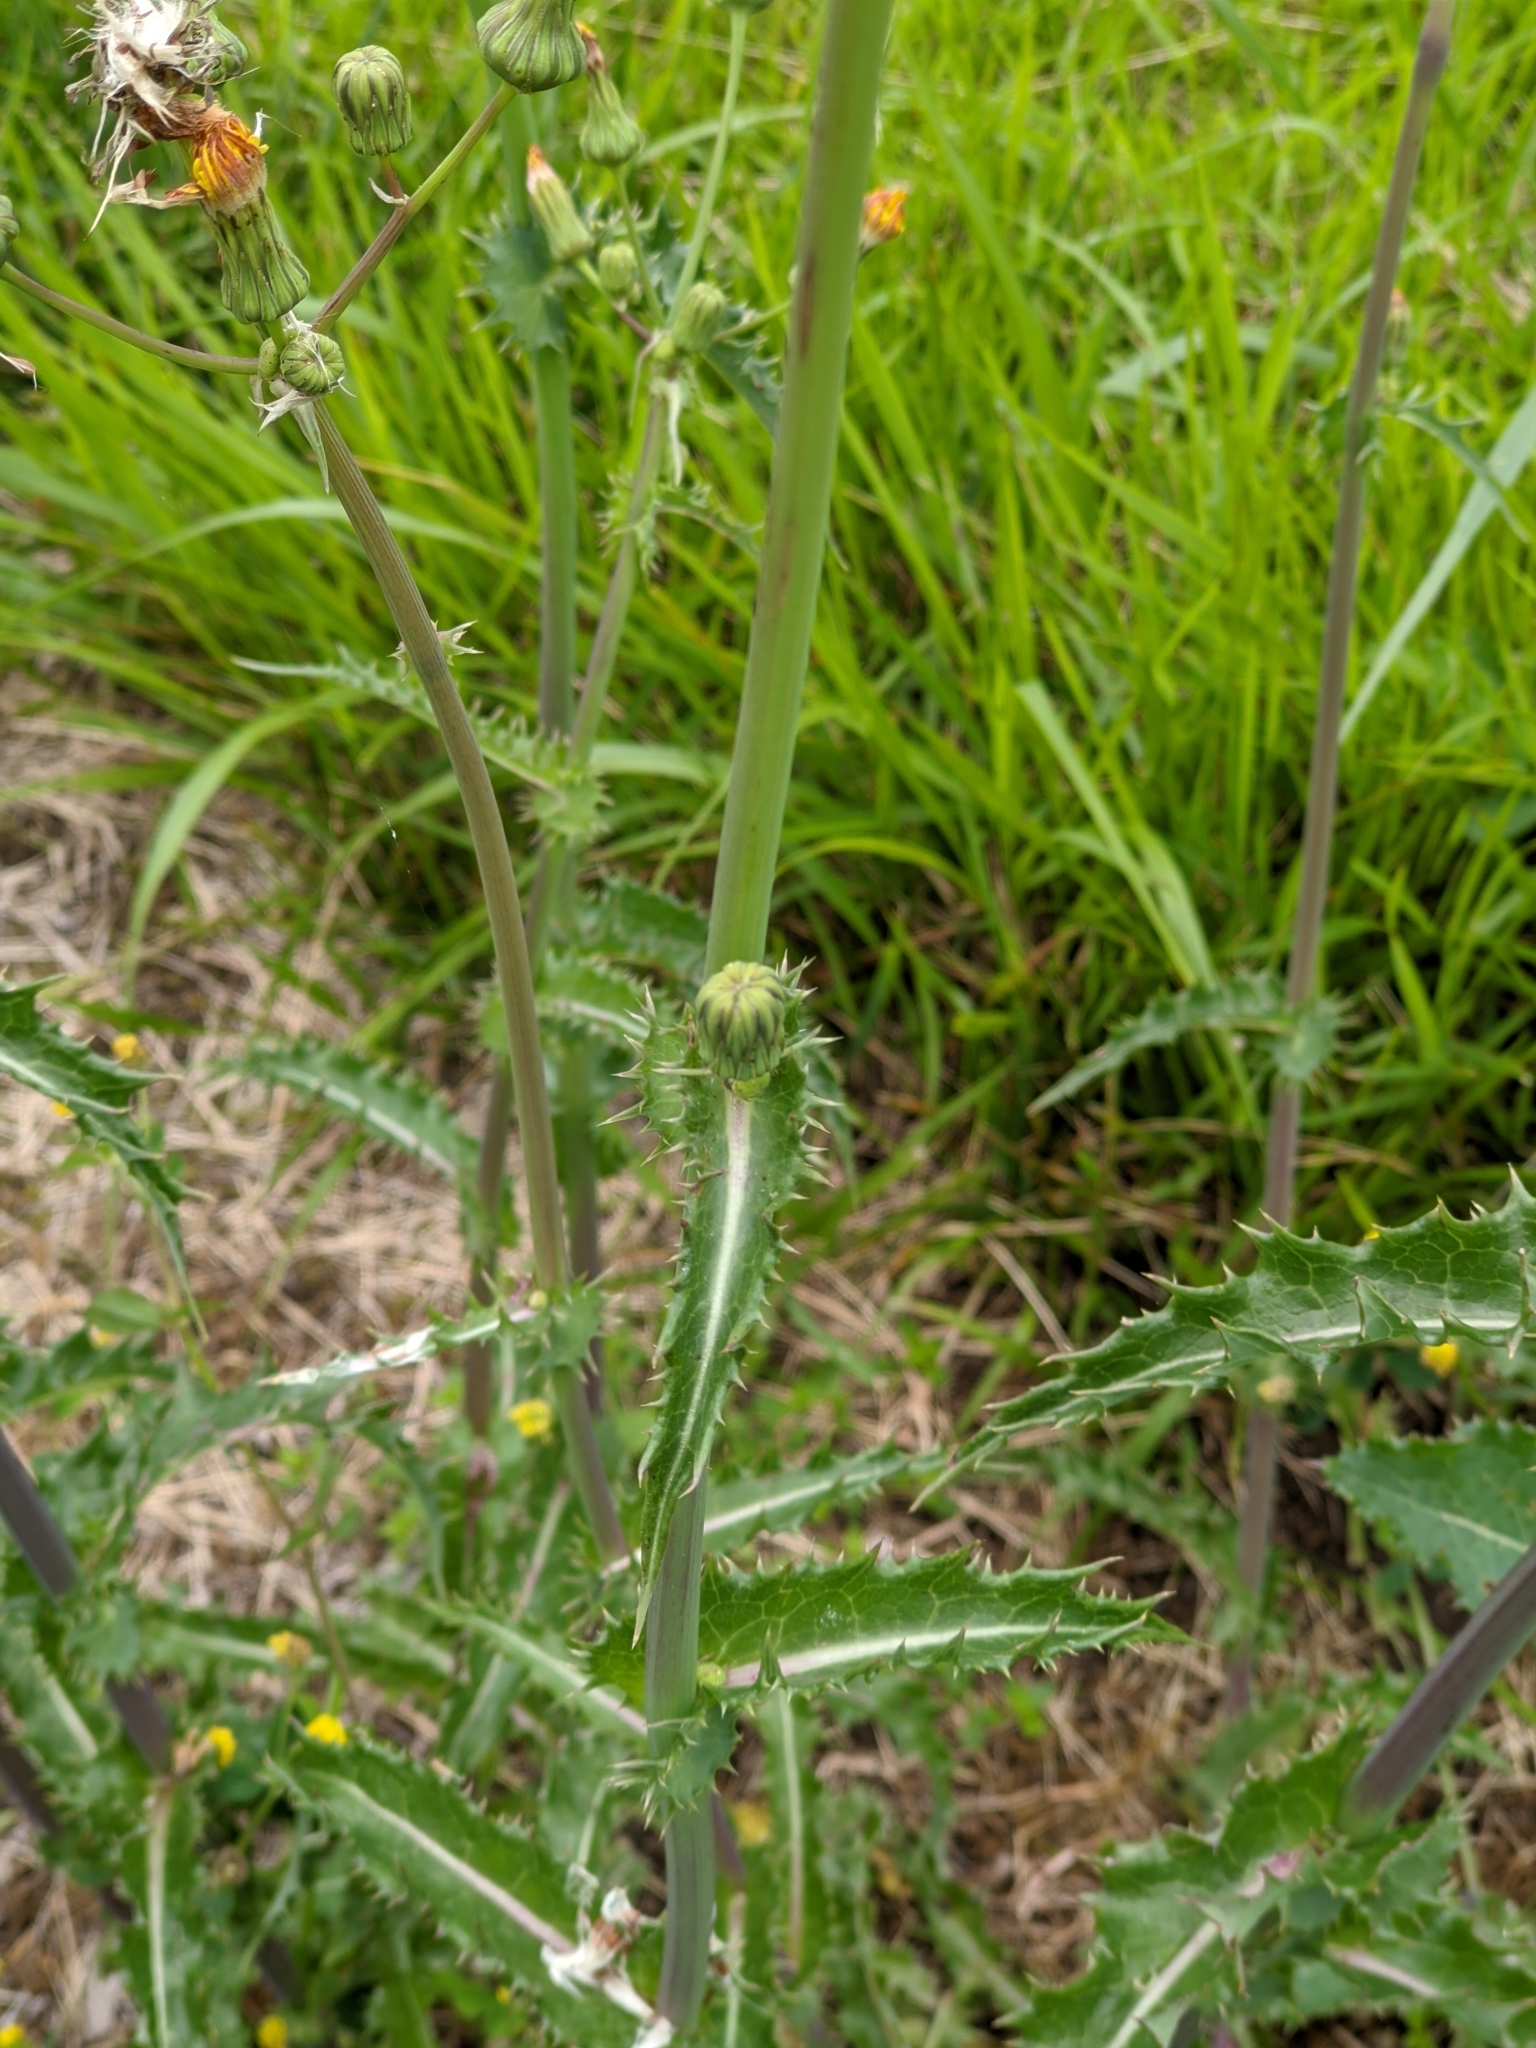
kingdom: Plantae
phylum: Tracheophyta
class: Magnoliopsida
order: Asterales
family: Asteraceae
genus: Sonchus
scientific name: Sonchus asper
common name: Prickly sow-thistle
